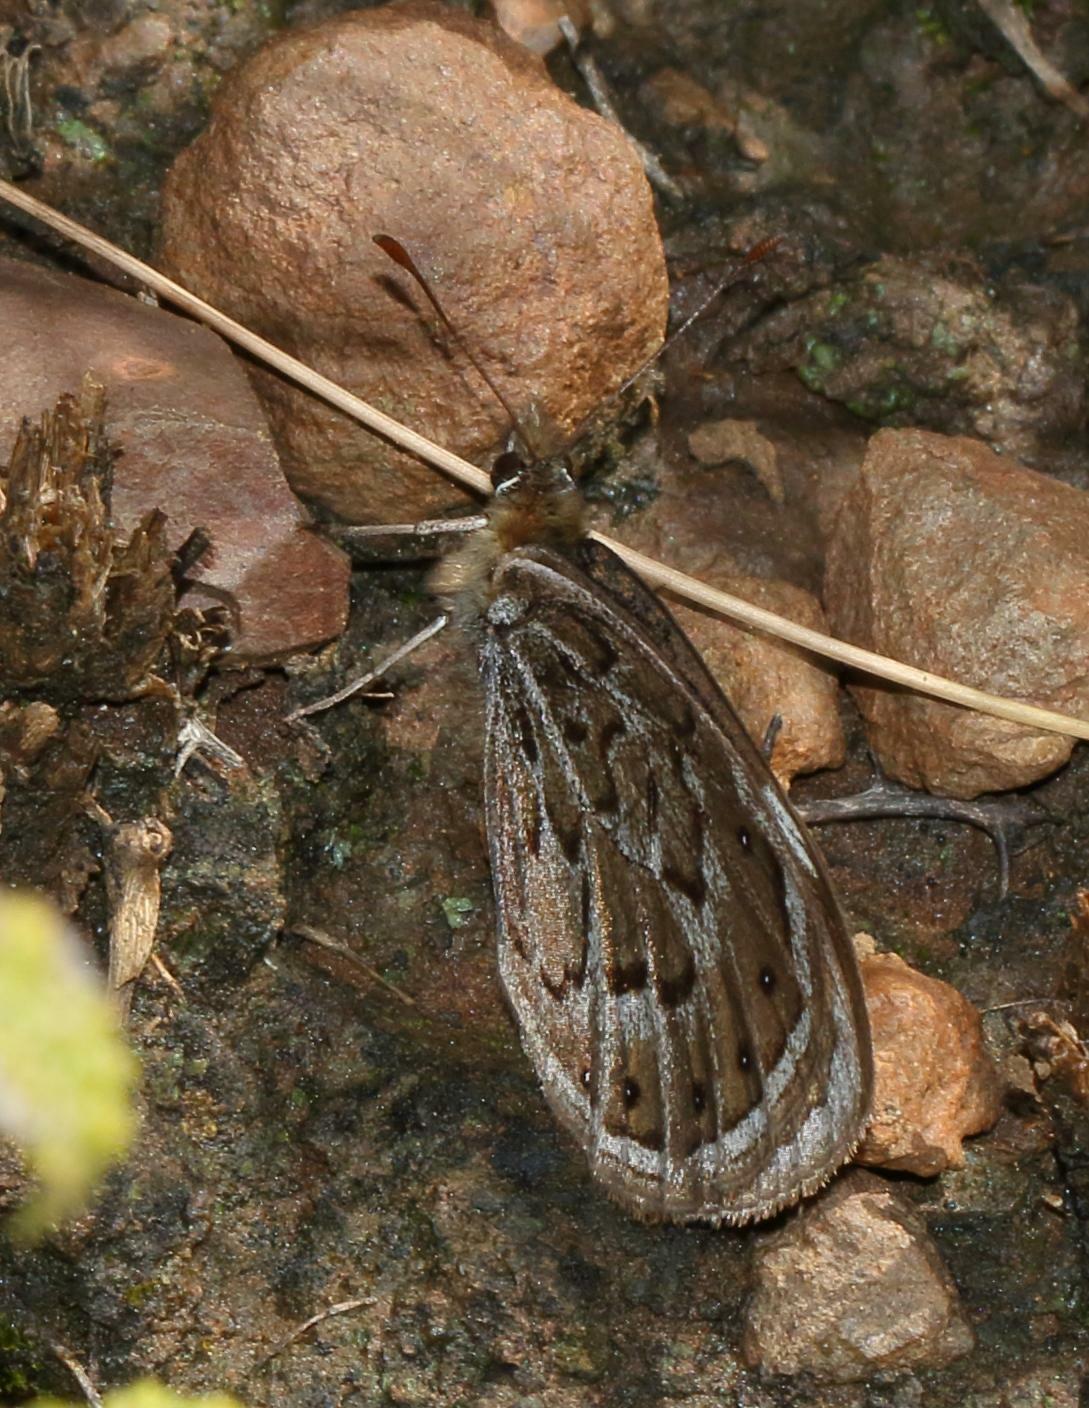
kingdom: Animalia
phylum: Arthropoda
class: Insecta
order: Lepidoptera
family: Nymphalidae
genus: Torynesis
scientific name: Torynesis magna
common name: Large widow
